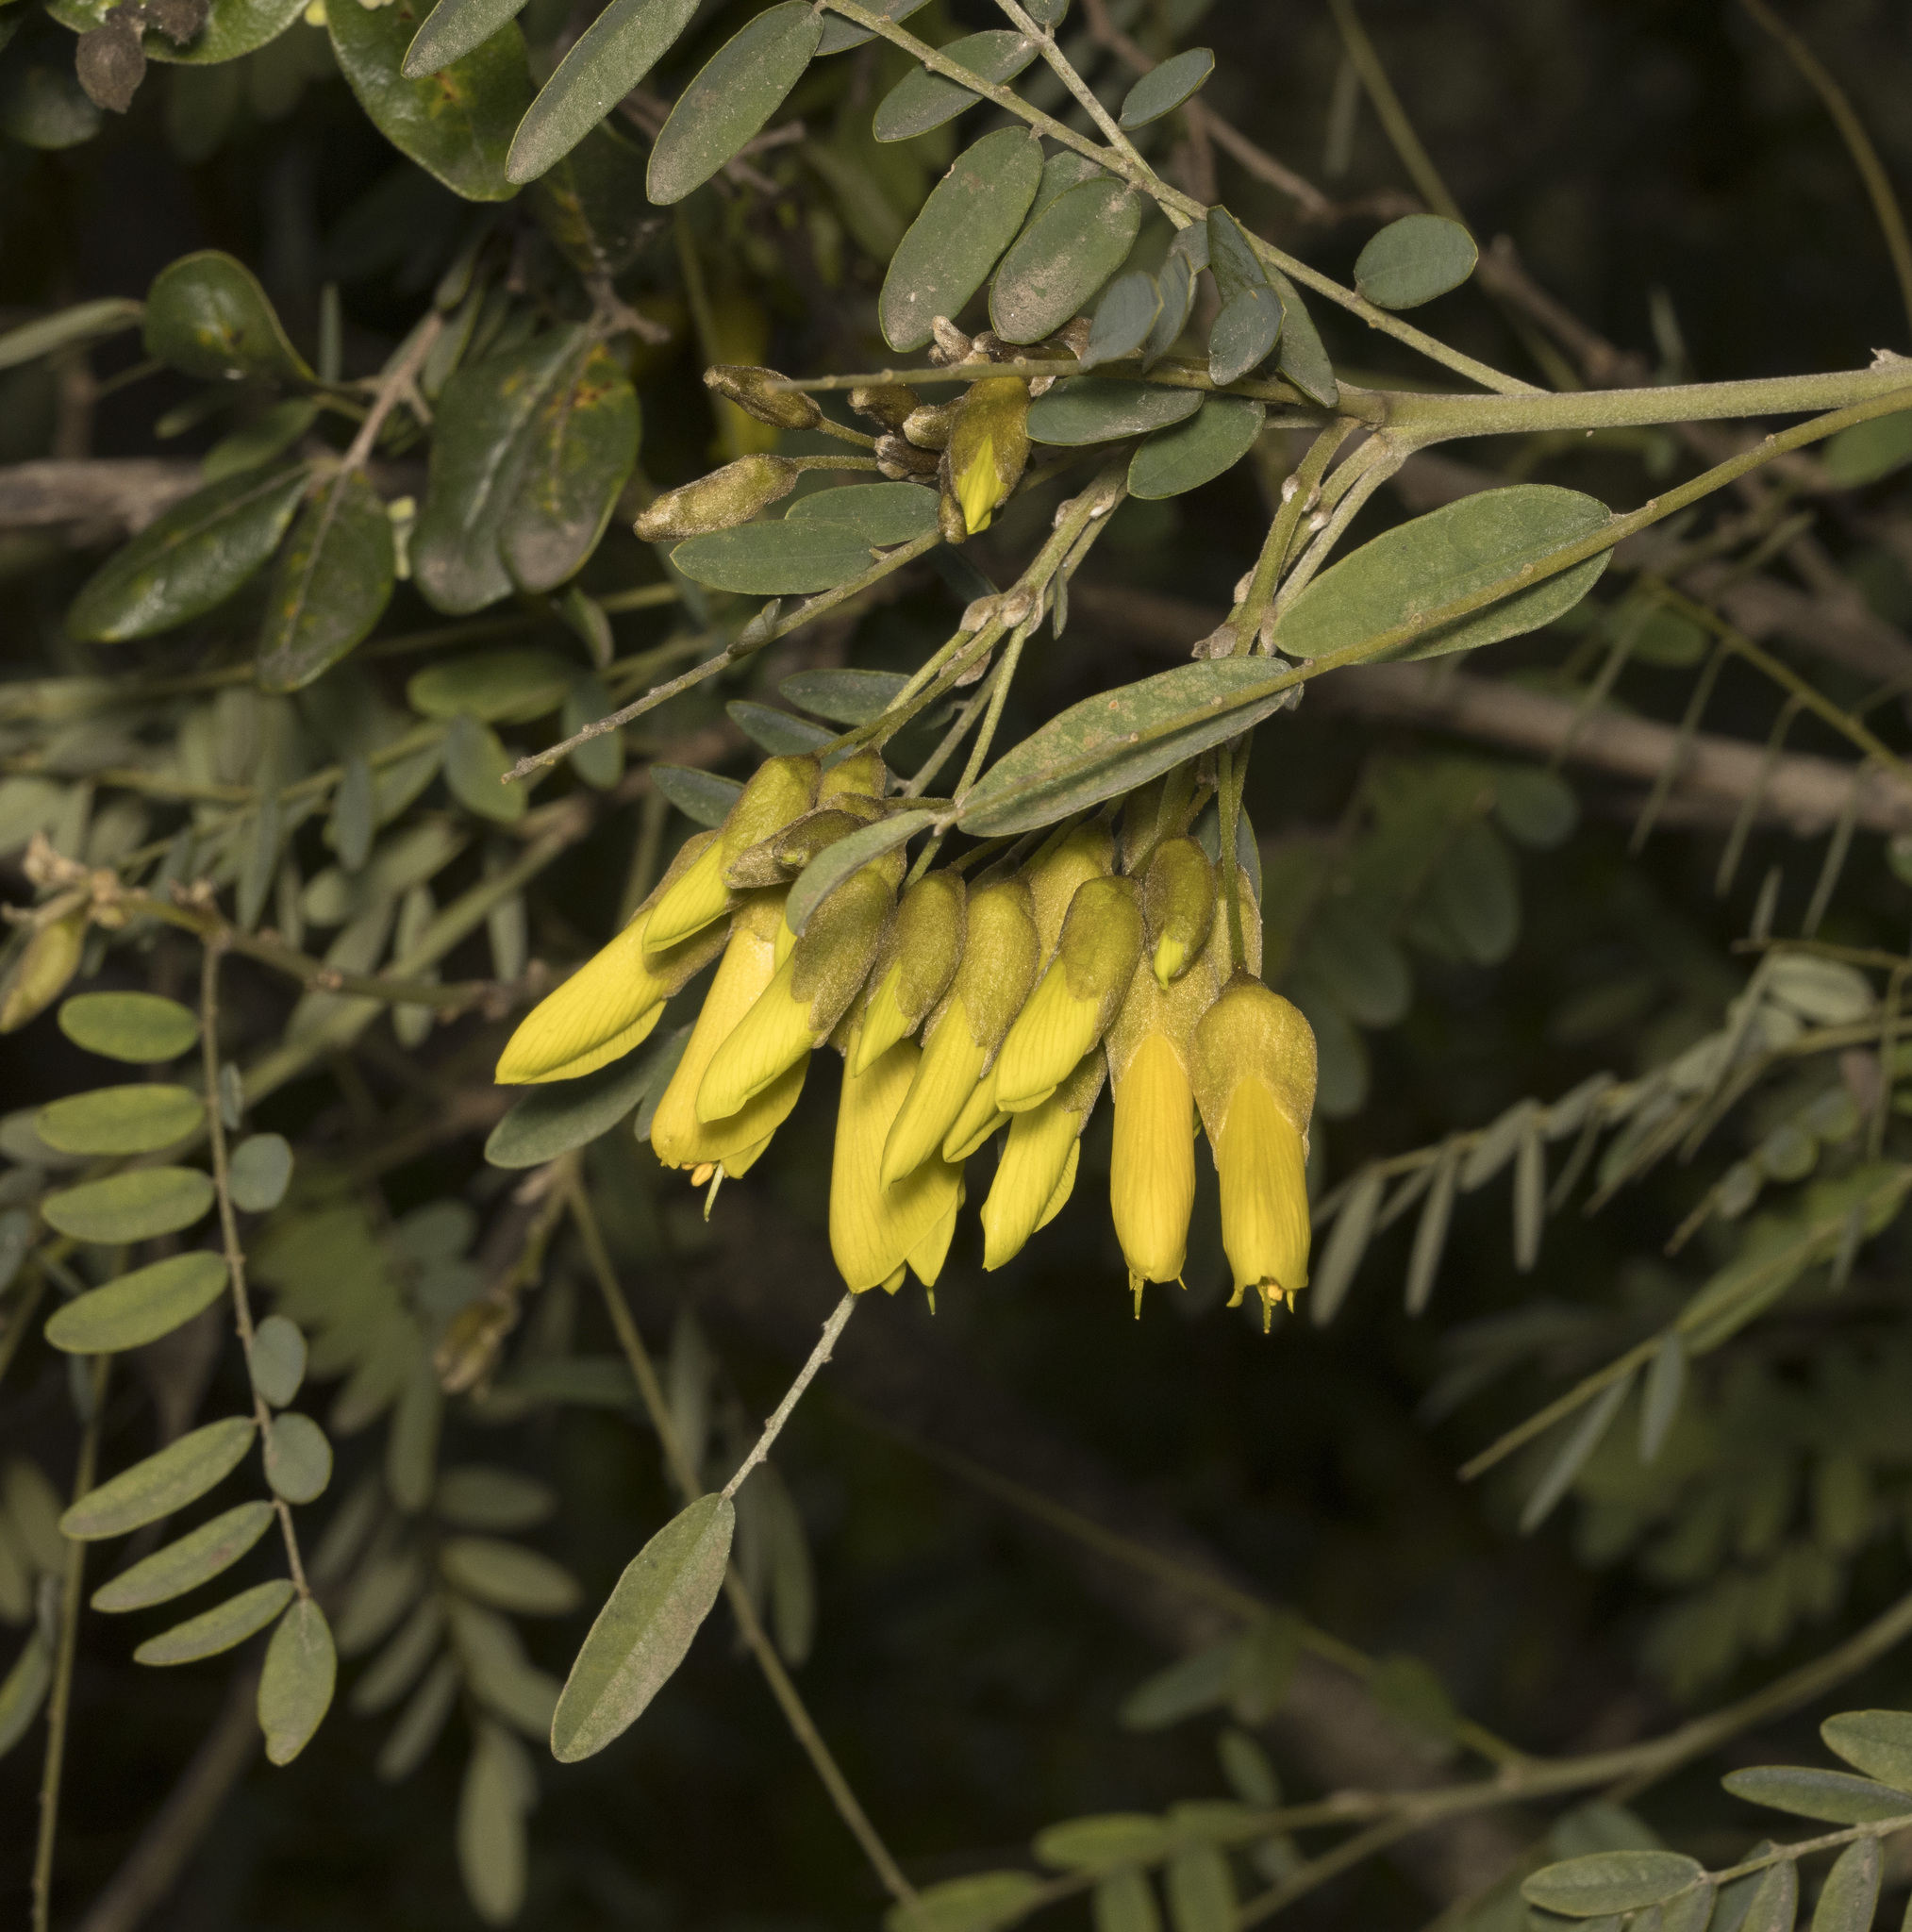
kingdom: Plantae
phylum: Tracheophyta
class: Magnoliopsida
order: Fabales
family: Fabaceae
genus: Sophora
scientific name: Sophora macrocarpa
